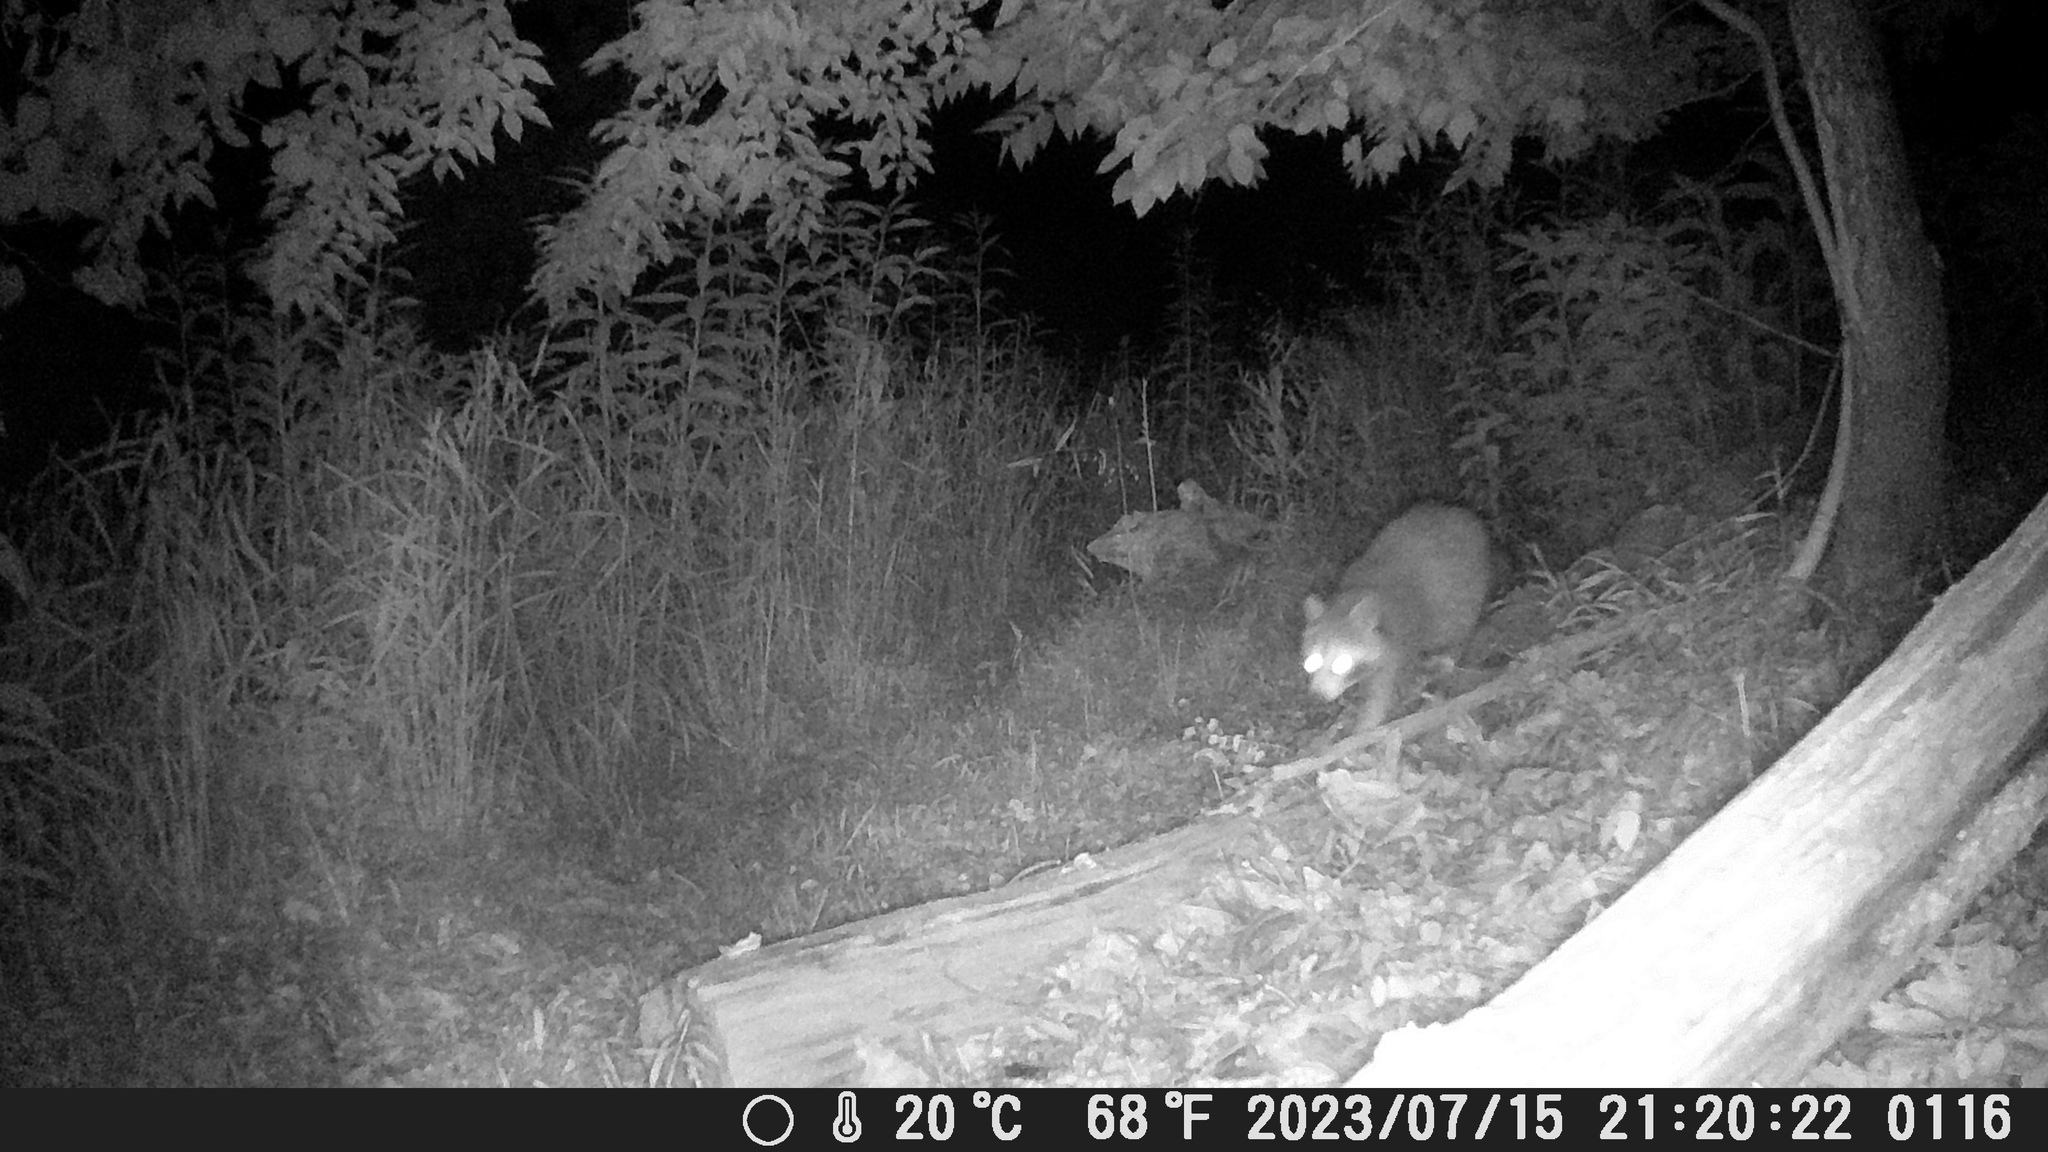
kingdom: Animalia
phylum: Chordata
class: Mammalia
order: Carnivora
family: Procyonidae
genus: Procyon
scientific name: Procyon lotor
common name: Raccoon
